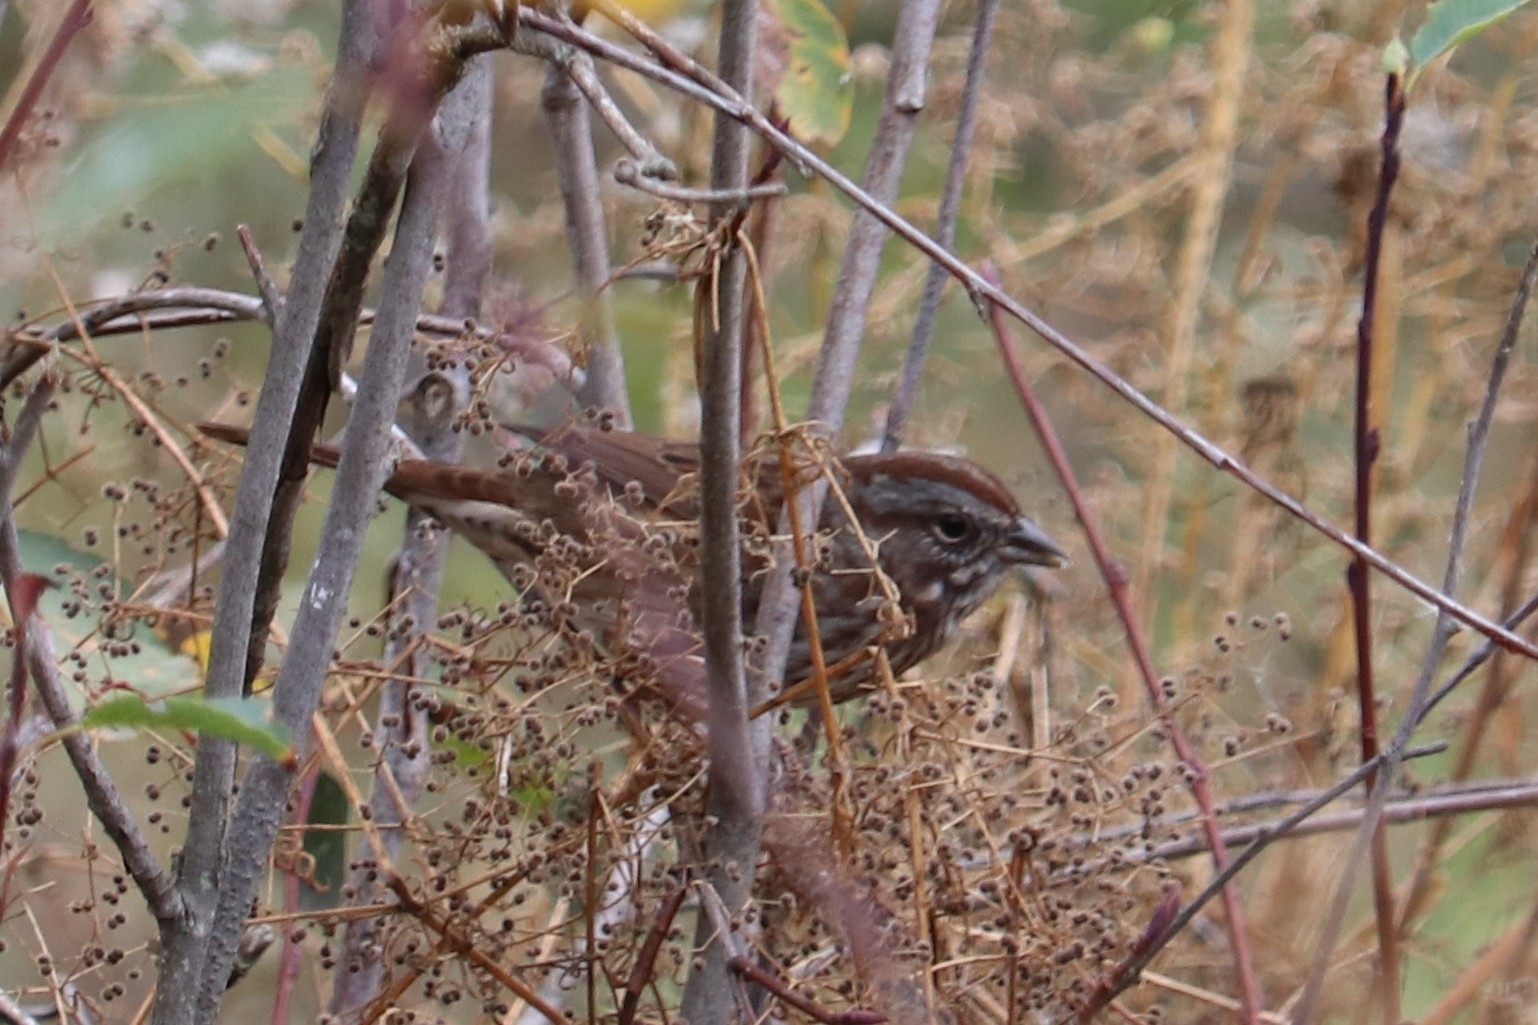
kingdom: Animalia
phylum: Chordata
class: Aves
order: Passeriformes
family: Passerellidae
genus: Melospiza
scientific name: Melospiza melodia
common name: Song sparrow
